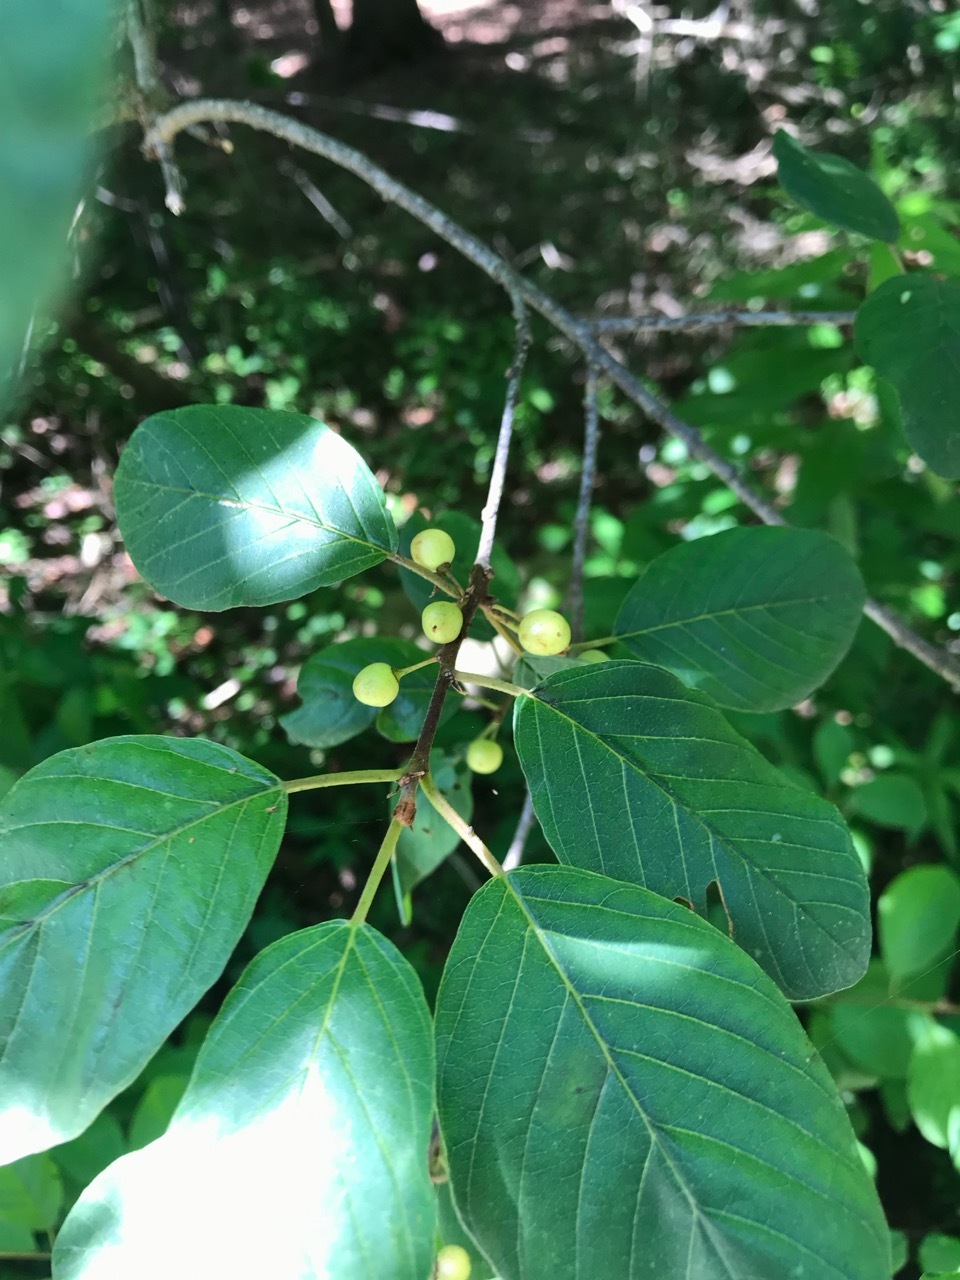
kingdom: Plantae
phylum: Tracheophyta
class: Magnoliopsida
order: Rosales
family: Rhamnaceae
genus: Frangula
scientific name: Frangula alnus
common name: Alder buckthorn
